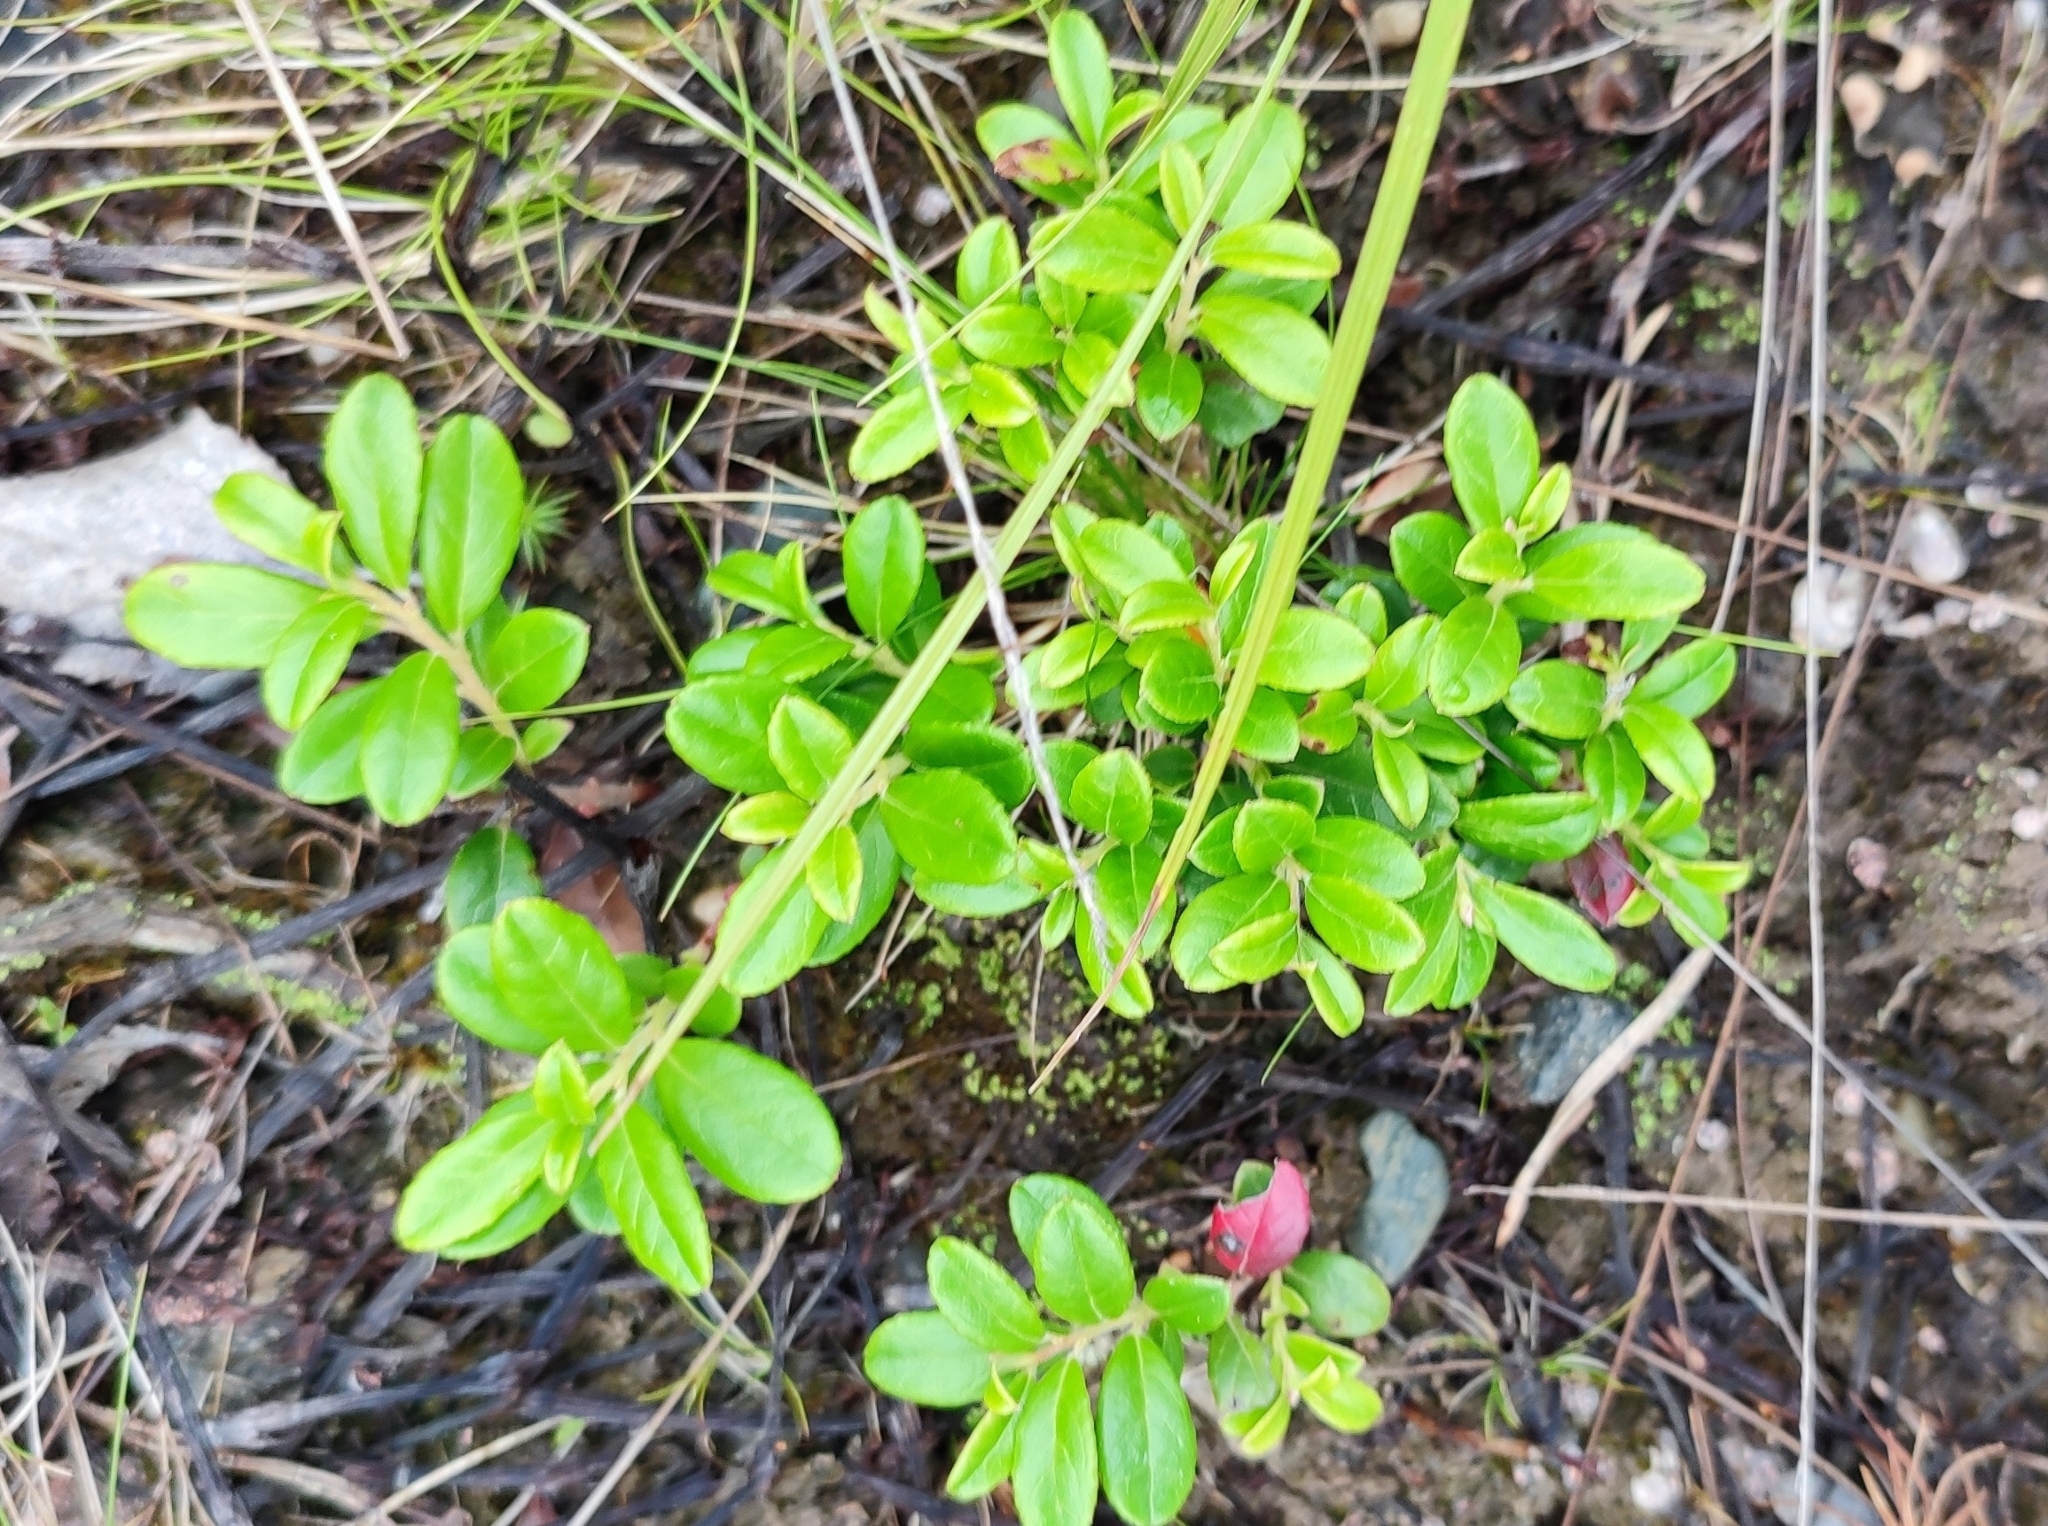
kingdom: Plantae
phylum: Tracheophyta
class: Magnoliopsida
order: Ericales
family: Ericaceae
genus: Vaccinium
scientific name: Vaccinium vitis-idaea
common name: Cowberry
